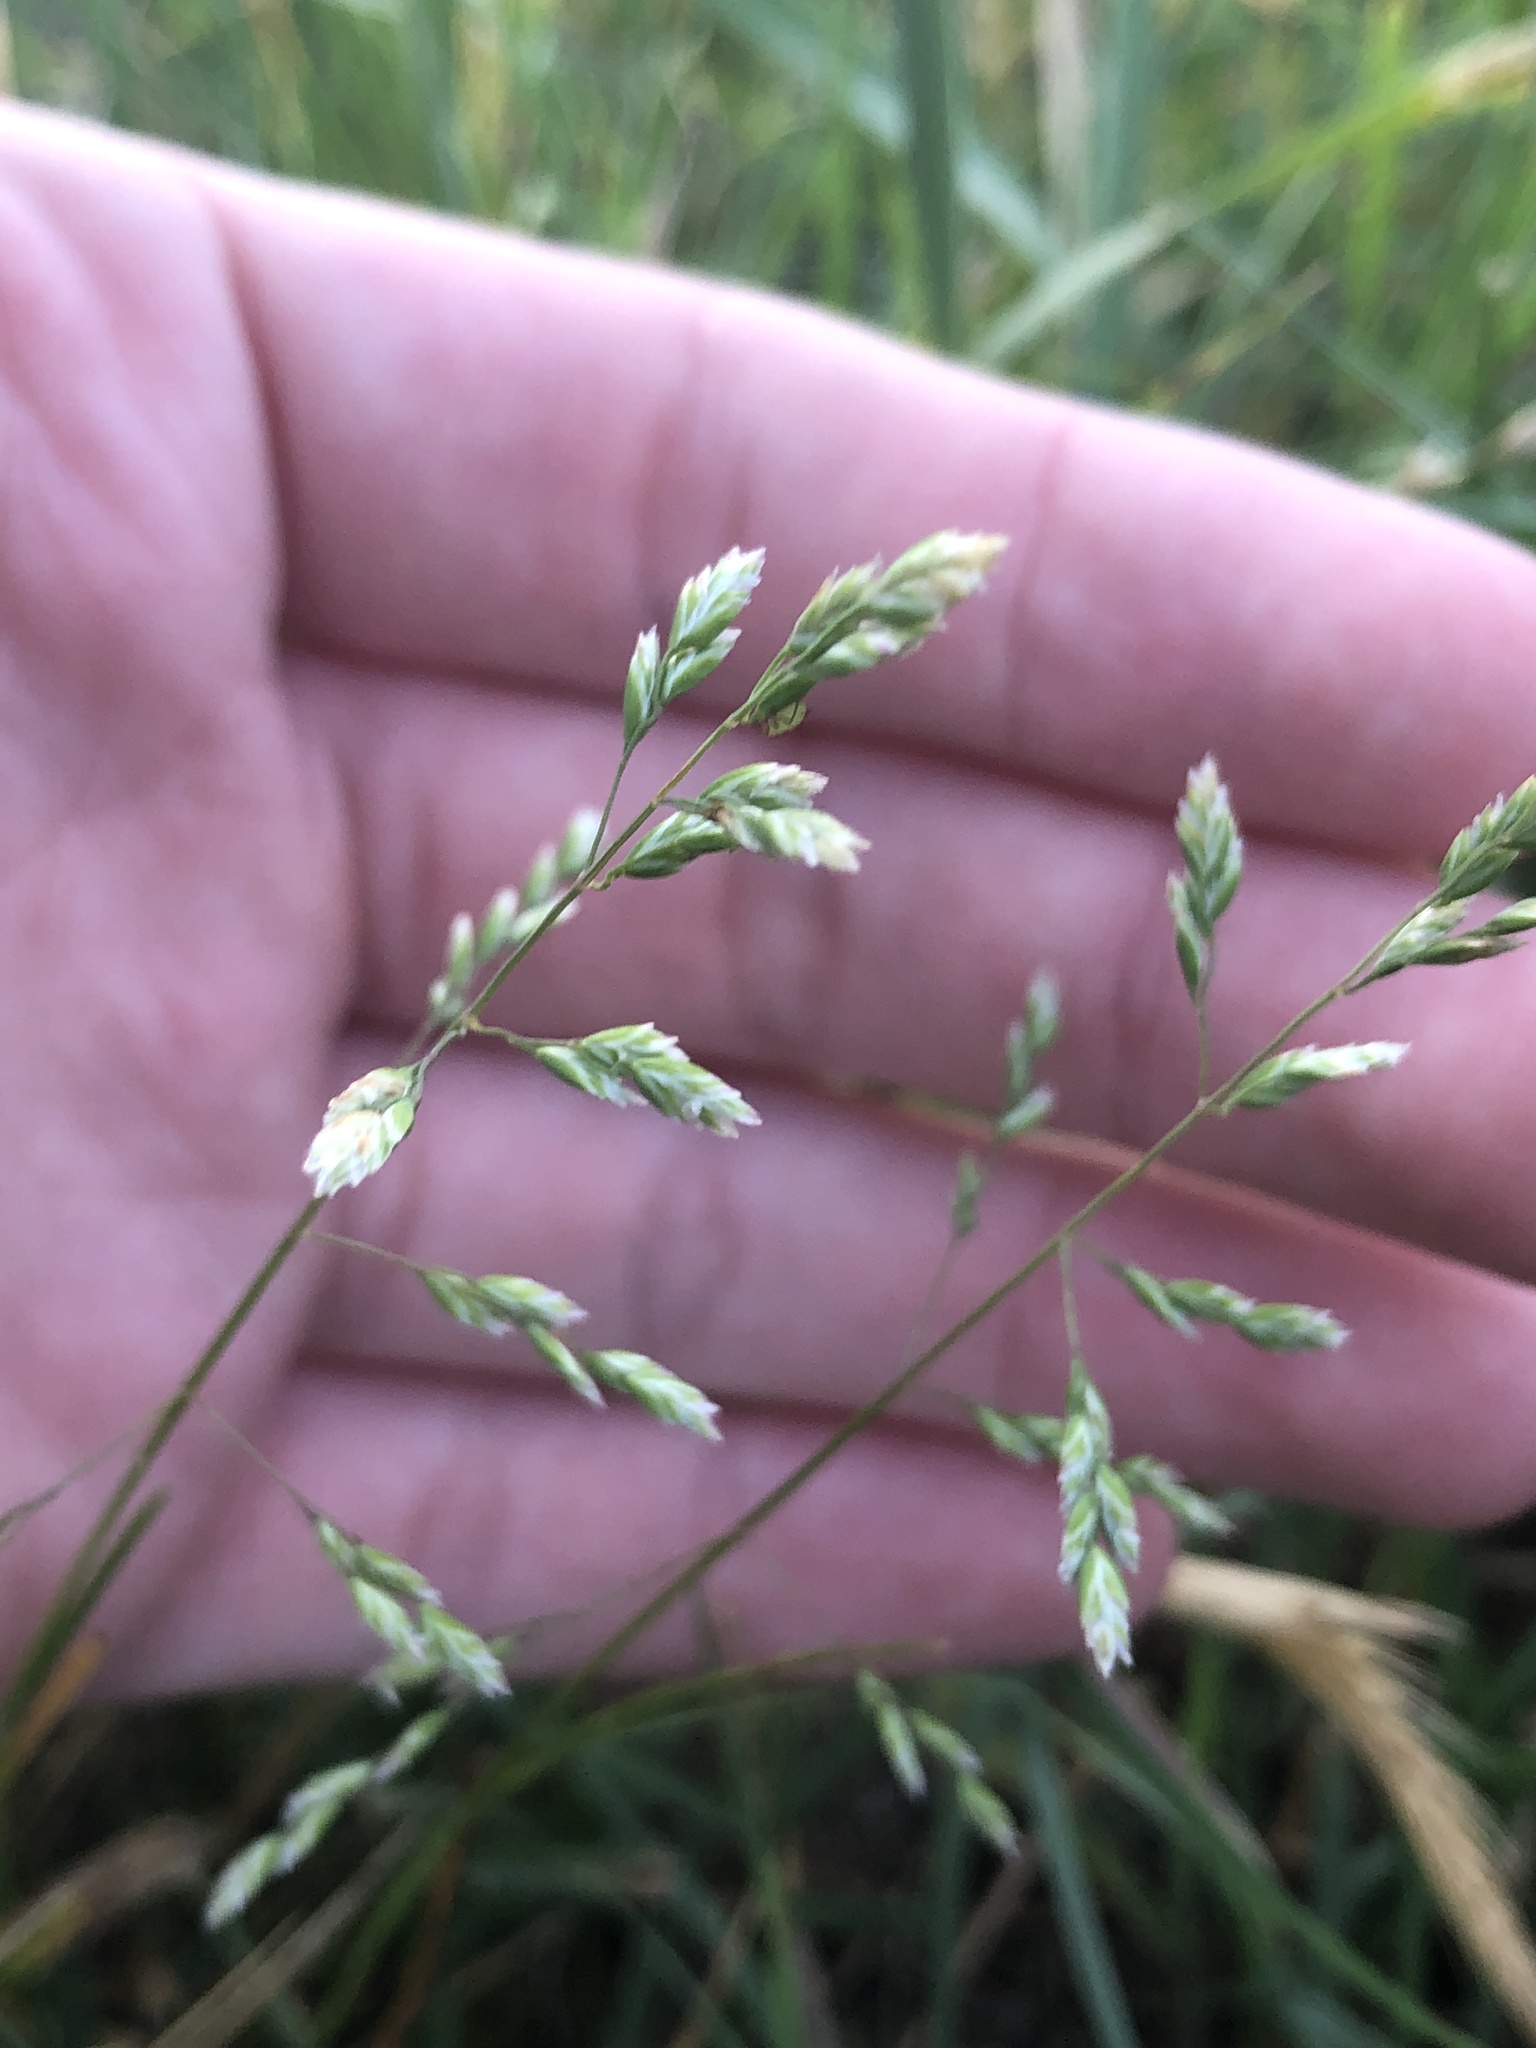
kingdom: Plantae
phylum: Tracheophyta
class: Liliopsida
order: Poales
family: Poaceae
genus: Poa
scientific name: Poa annua
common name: Annual bluegrass
